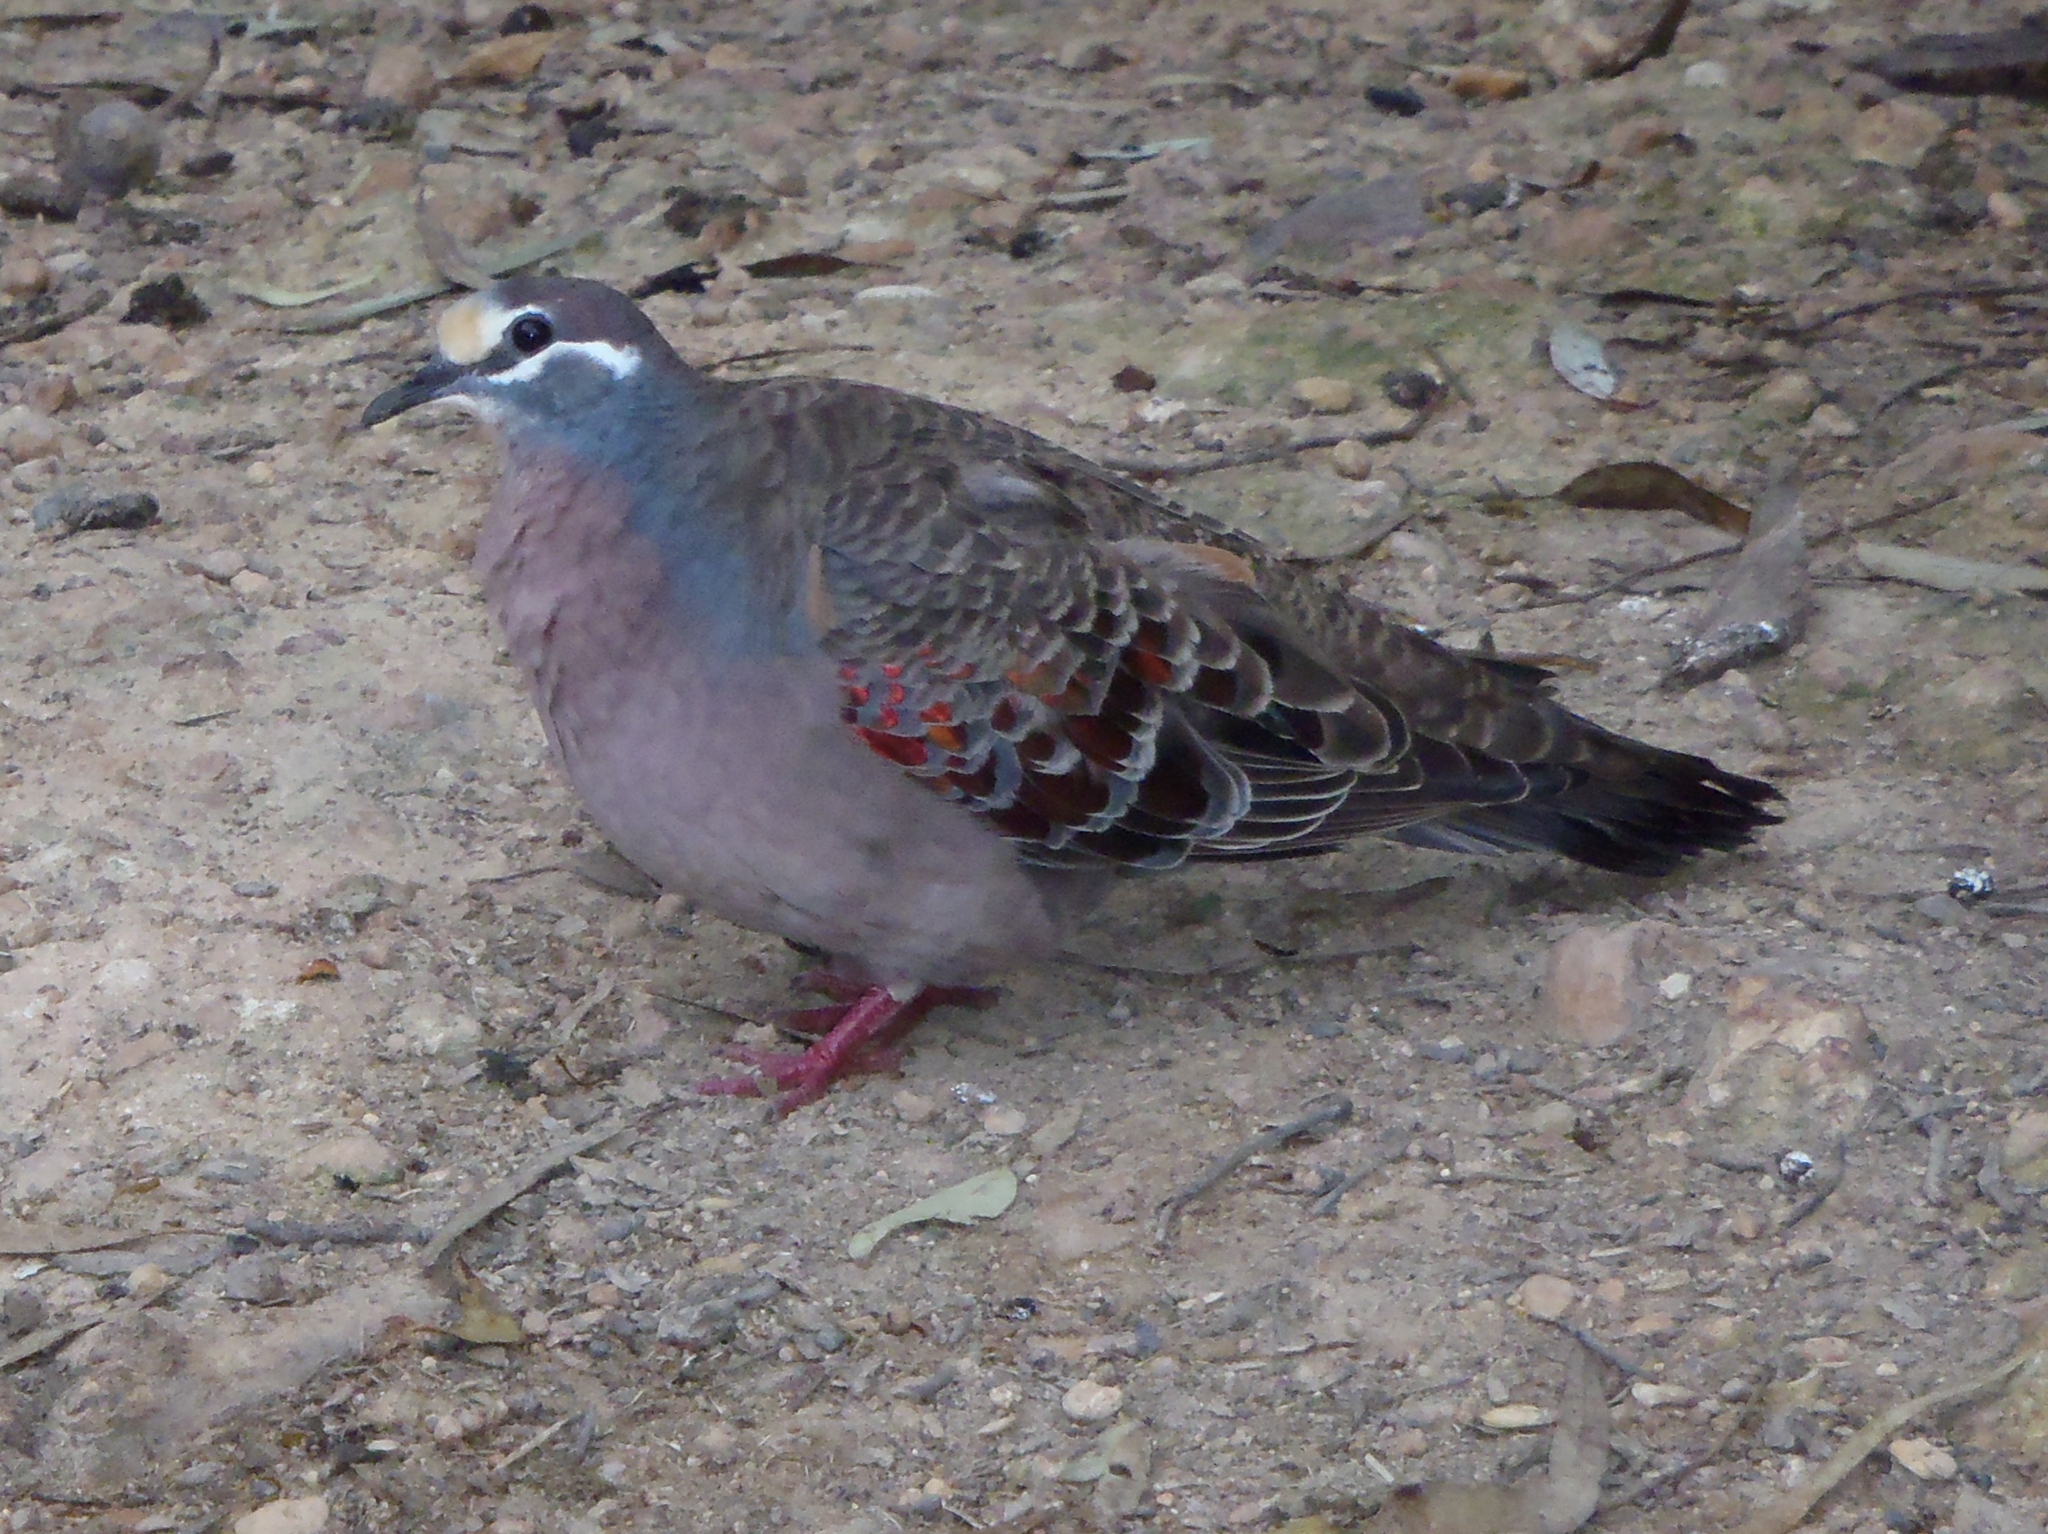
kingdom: Animalia
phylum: Chordata
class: Aves
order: Columbiformes
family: Columbidae
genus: Phaps
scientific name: Phaps chalcoptera
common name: Common bronzewing
